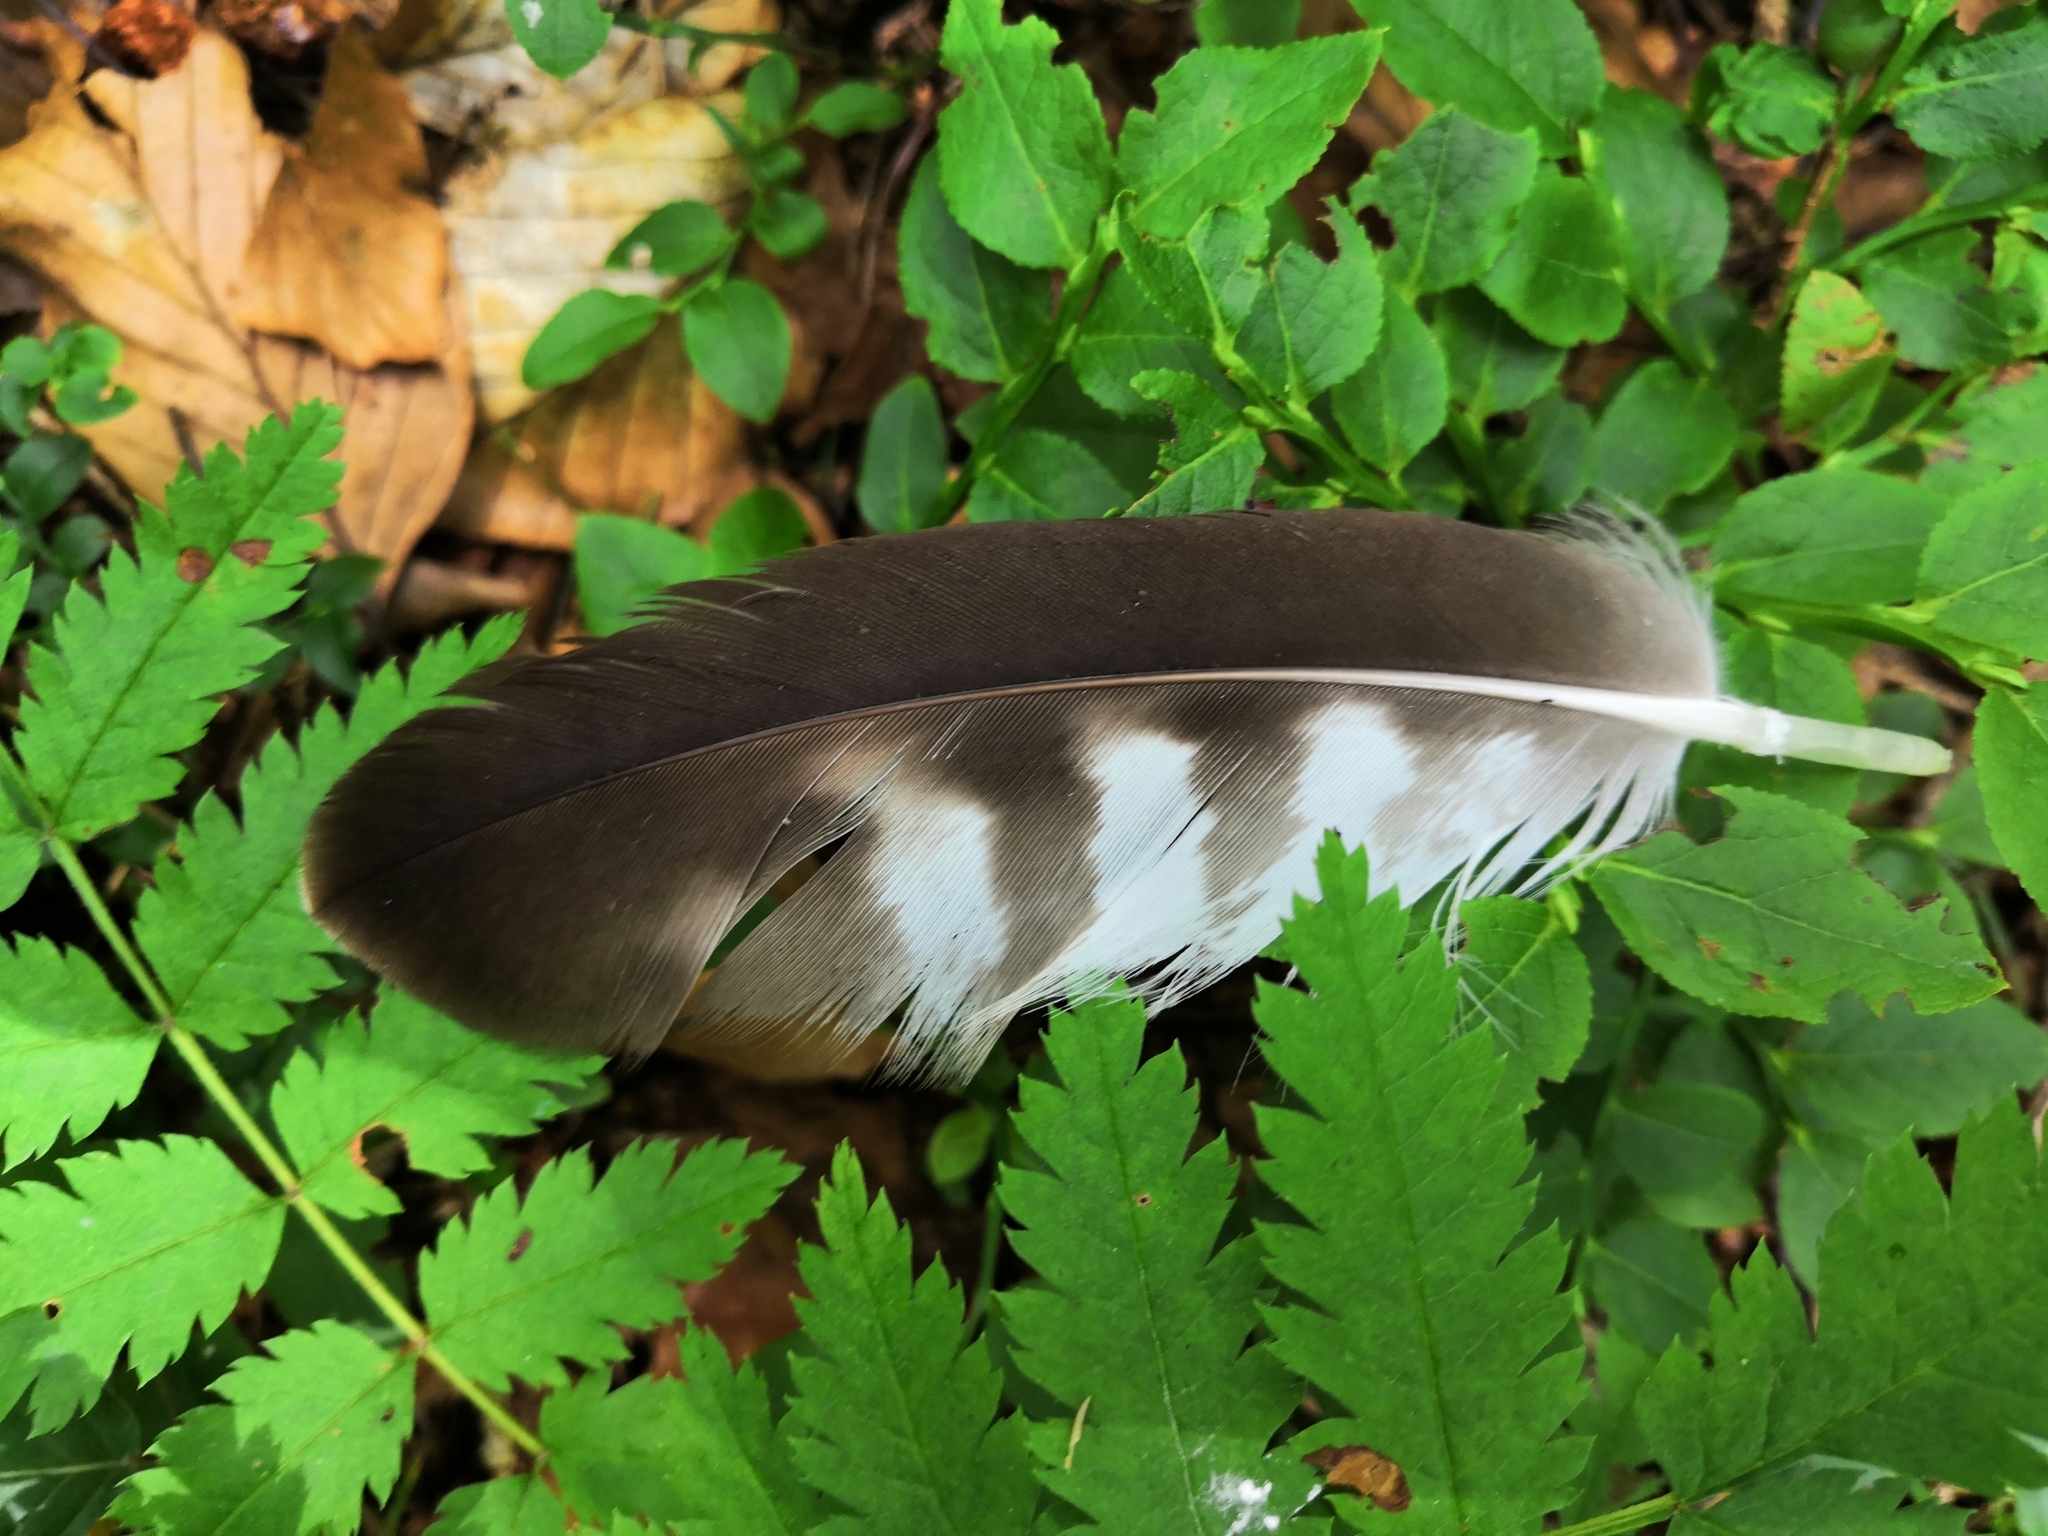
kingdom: Animalia
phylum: Chordata
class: Aves
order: Accipitriformes
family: Accipitridae
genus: Buteo
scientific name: Buteo buteo
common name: Common buzzard
